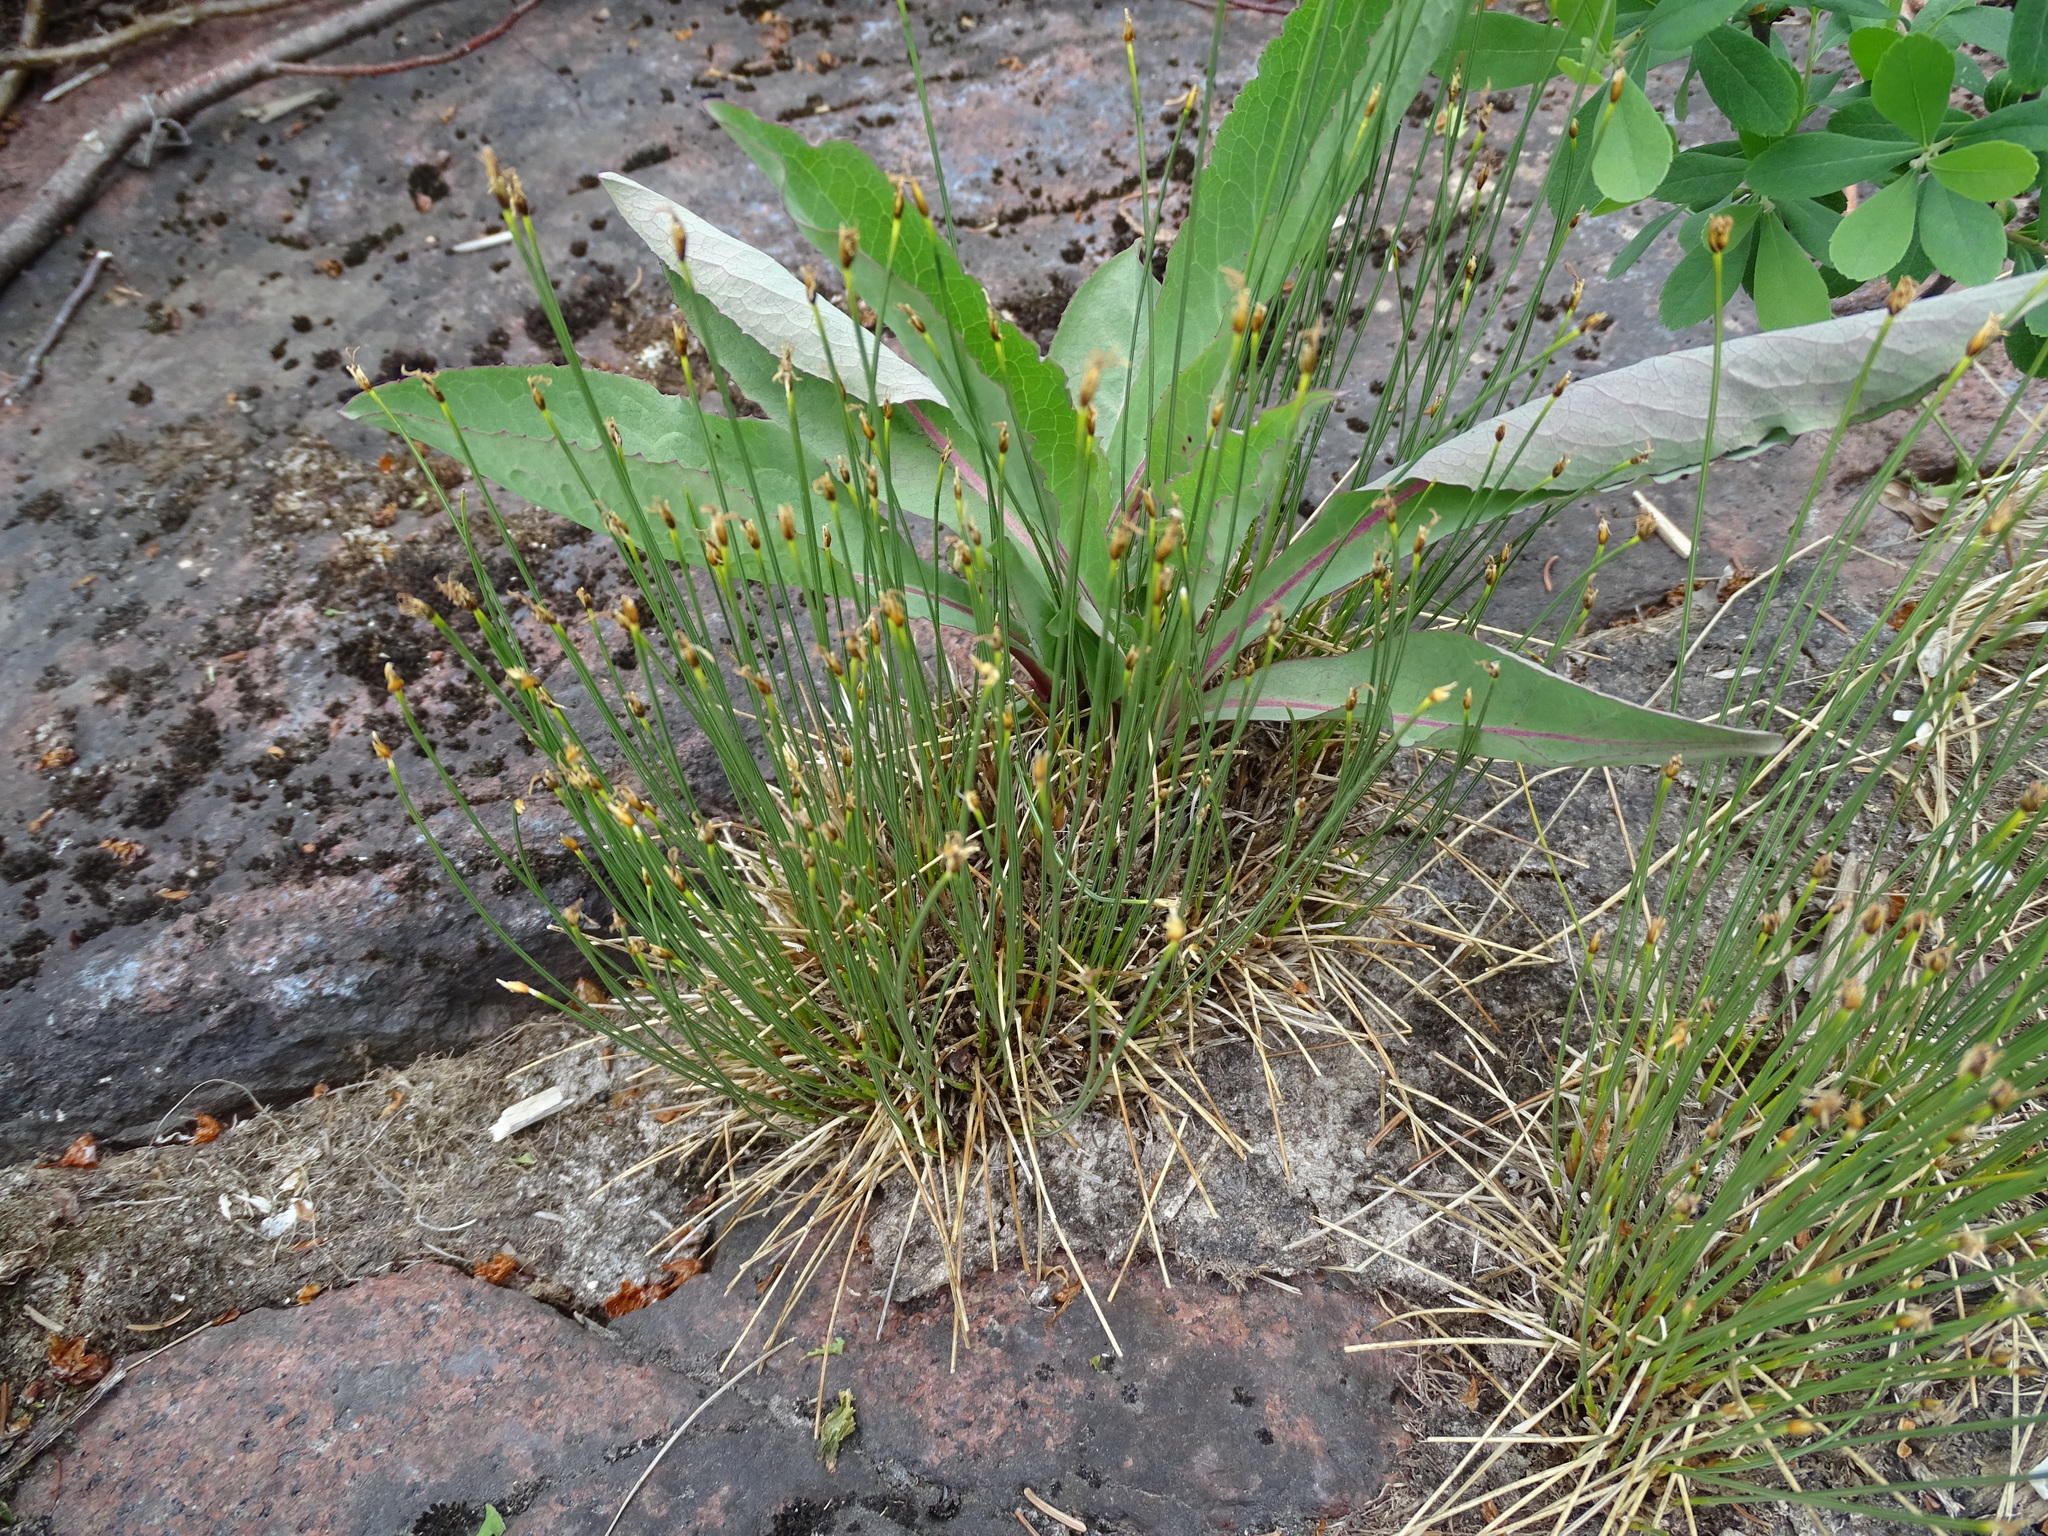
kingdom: Plantae
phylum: Tracheophyta
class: Liliopsida
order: Poales
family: Cyperaceae
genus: Trichophorum
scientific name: Trichophorum cespitosum
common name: Cespitose bulrush
